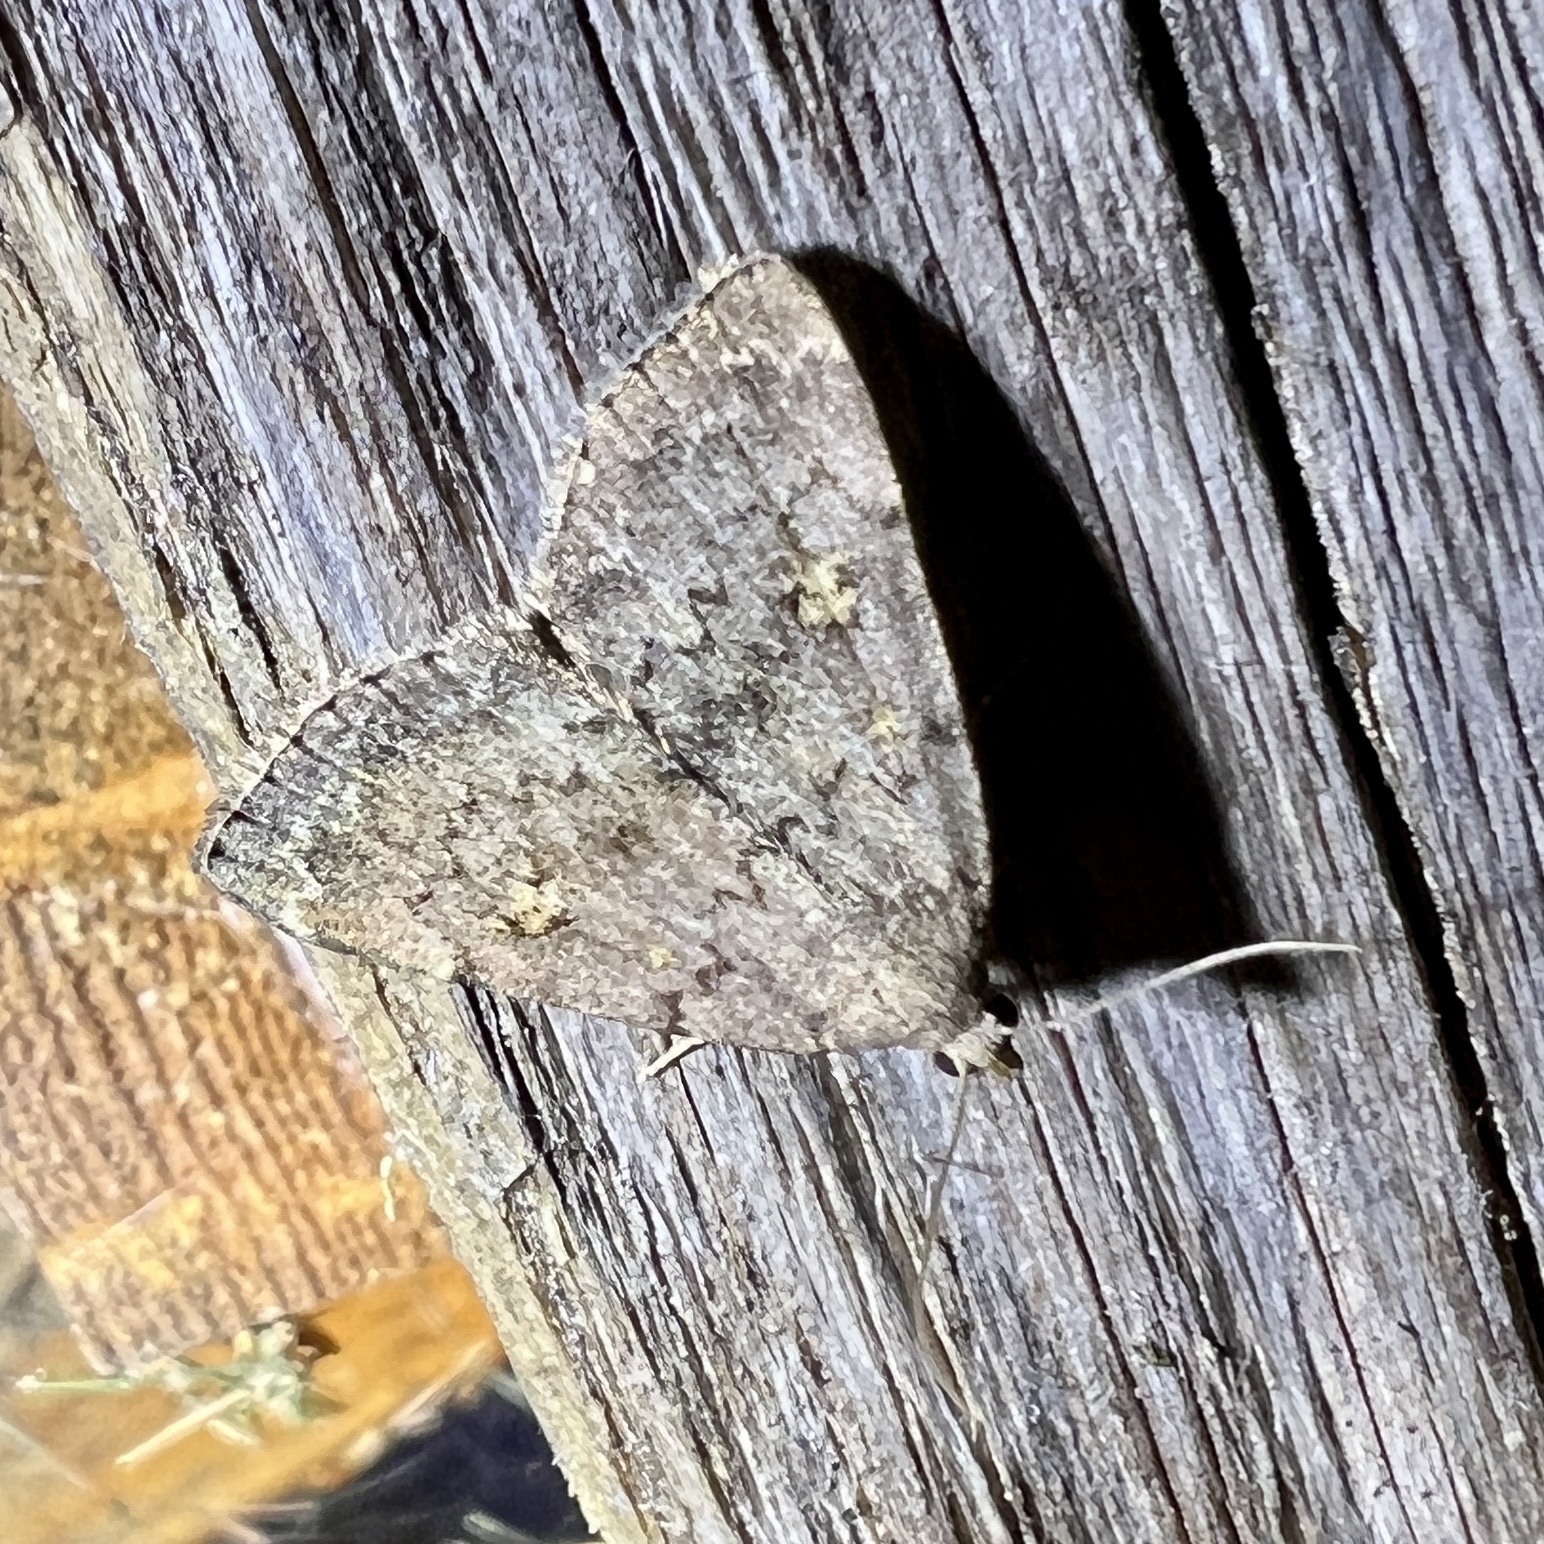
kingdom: Animalia
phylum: Arthropoda
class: Insecta
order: Lepidoptera
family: Erebidae
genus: Idia
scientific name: Idia aemula
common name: Common idia moth
